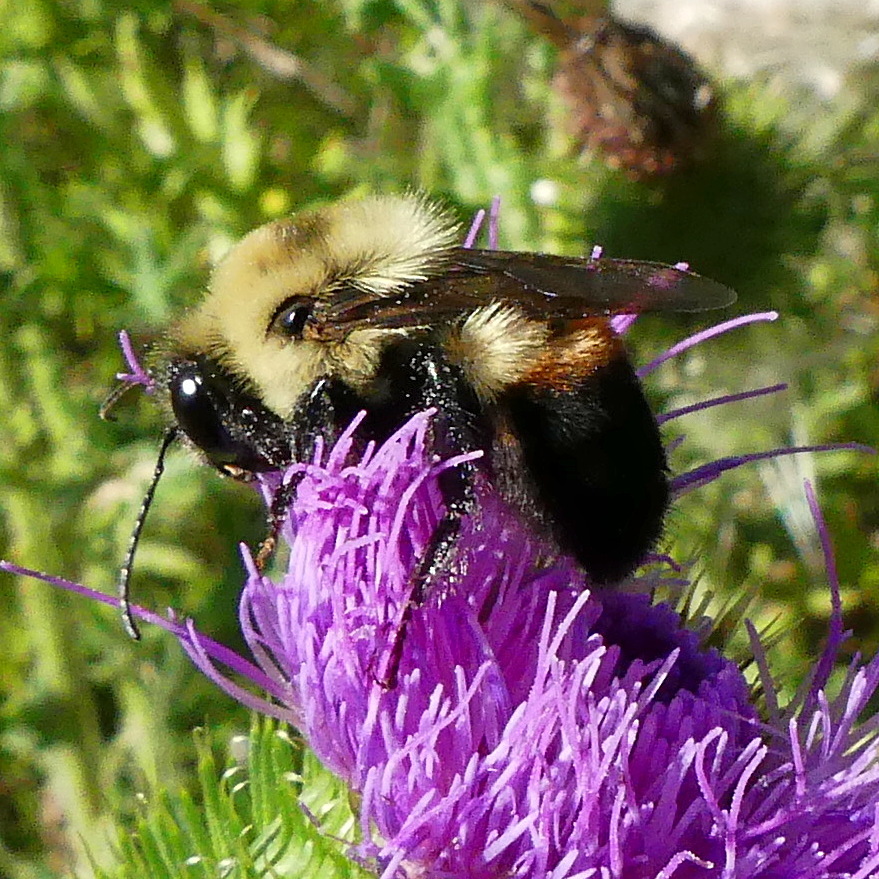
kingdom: Animalia
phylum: Arthropoda
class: Insecta
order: Hymenoptera
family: Apidae
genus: Bombus
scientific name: Bombus griseocollis
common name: Brown-belted bumble bee
